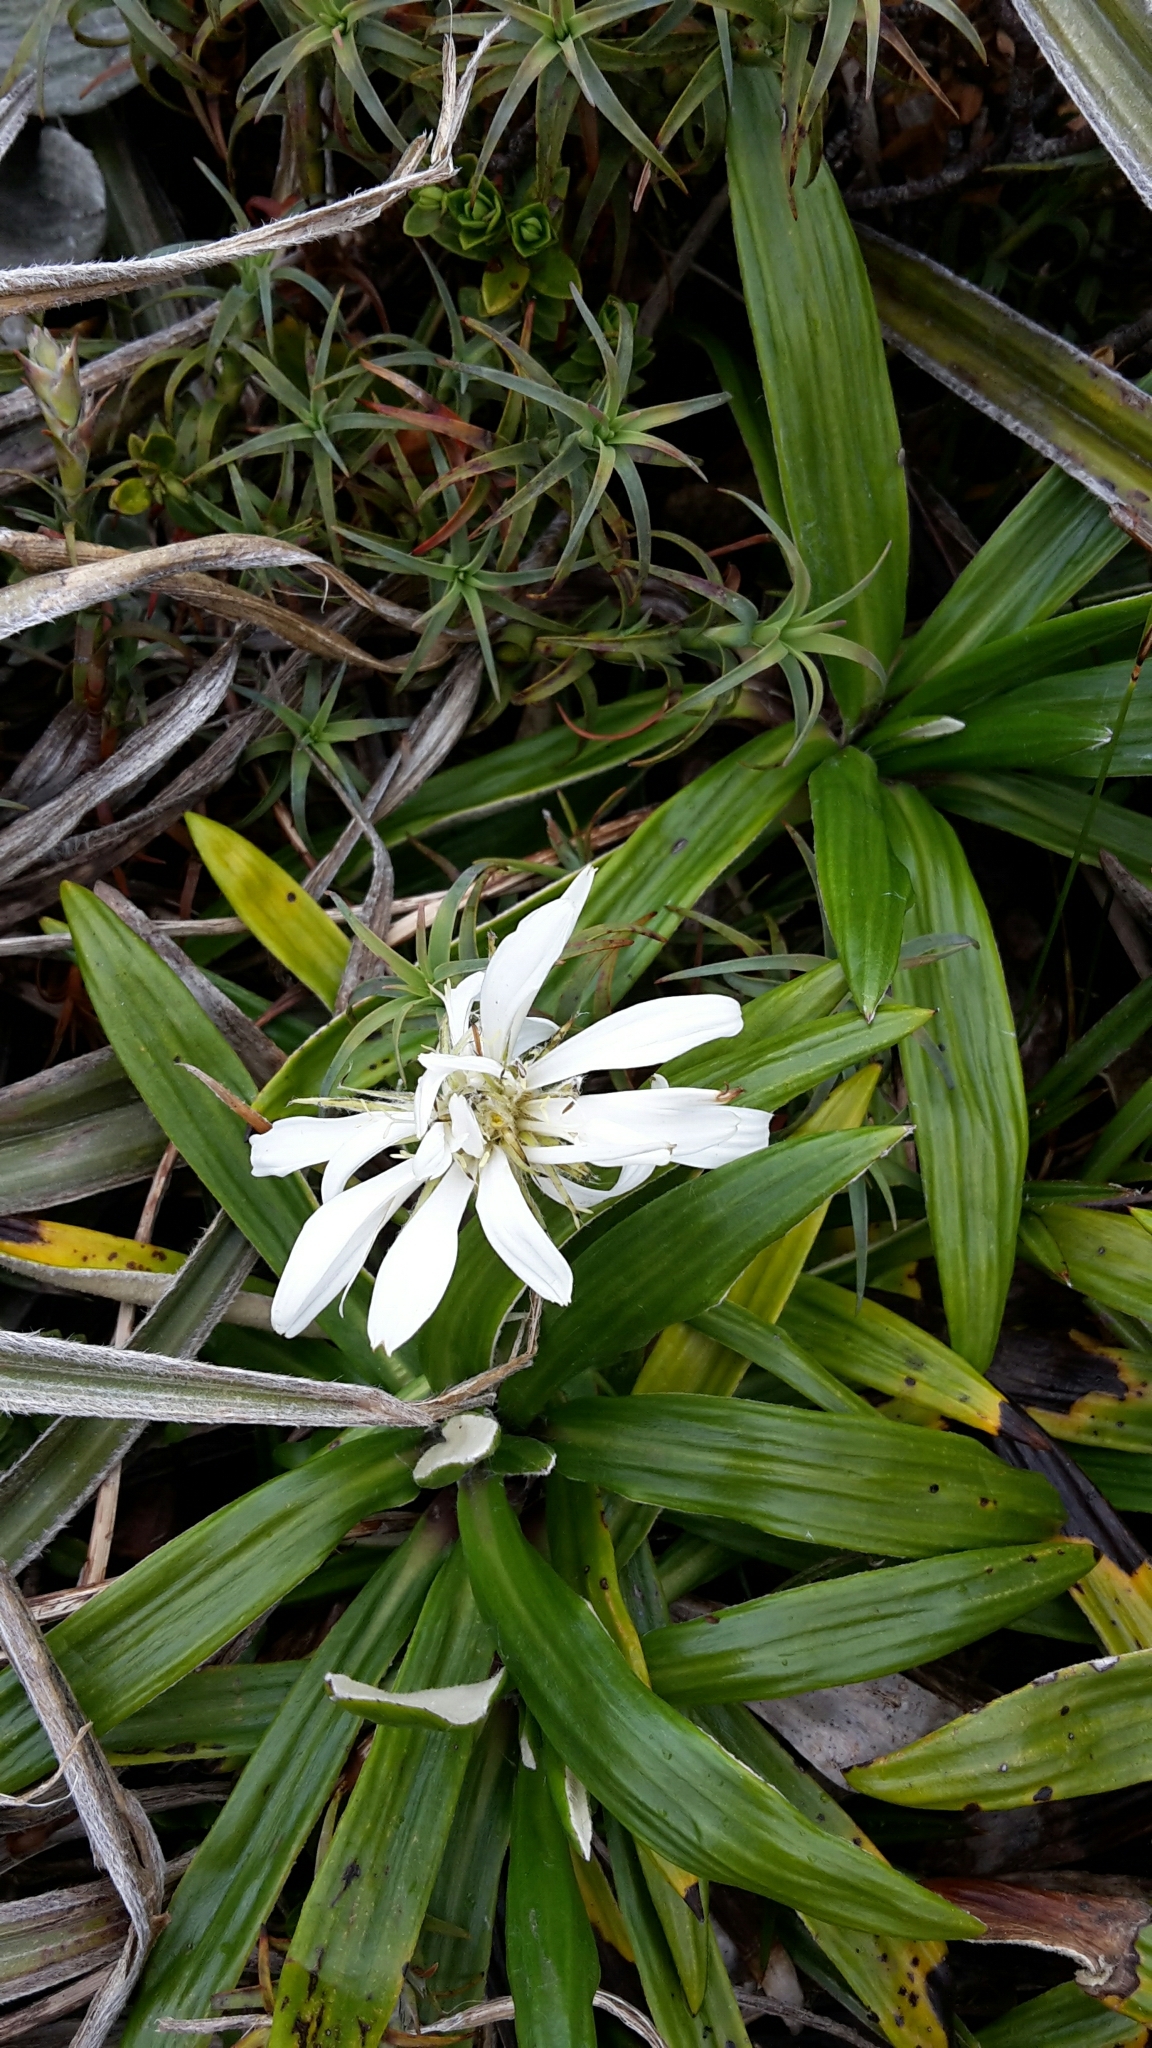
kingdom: Plantae
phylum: Tracheophyta
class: Magnoliopsida
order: Asterales
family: Asteraceae
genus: Celmisia
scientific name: Celmisia spectabilis
